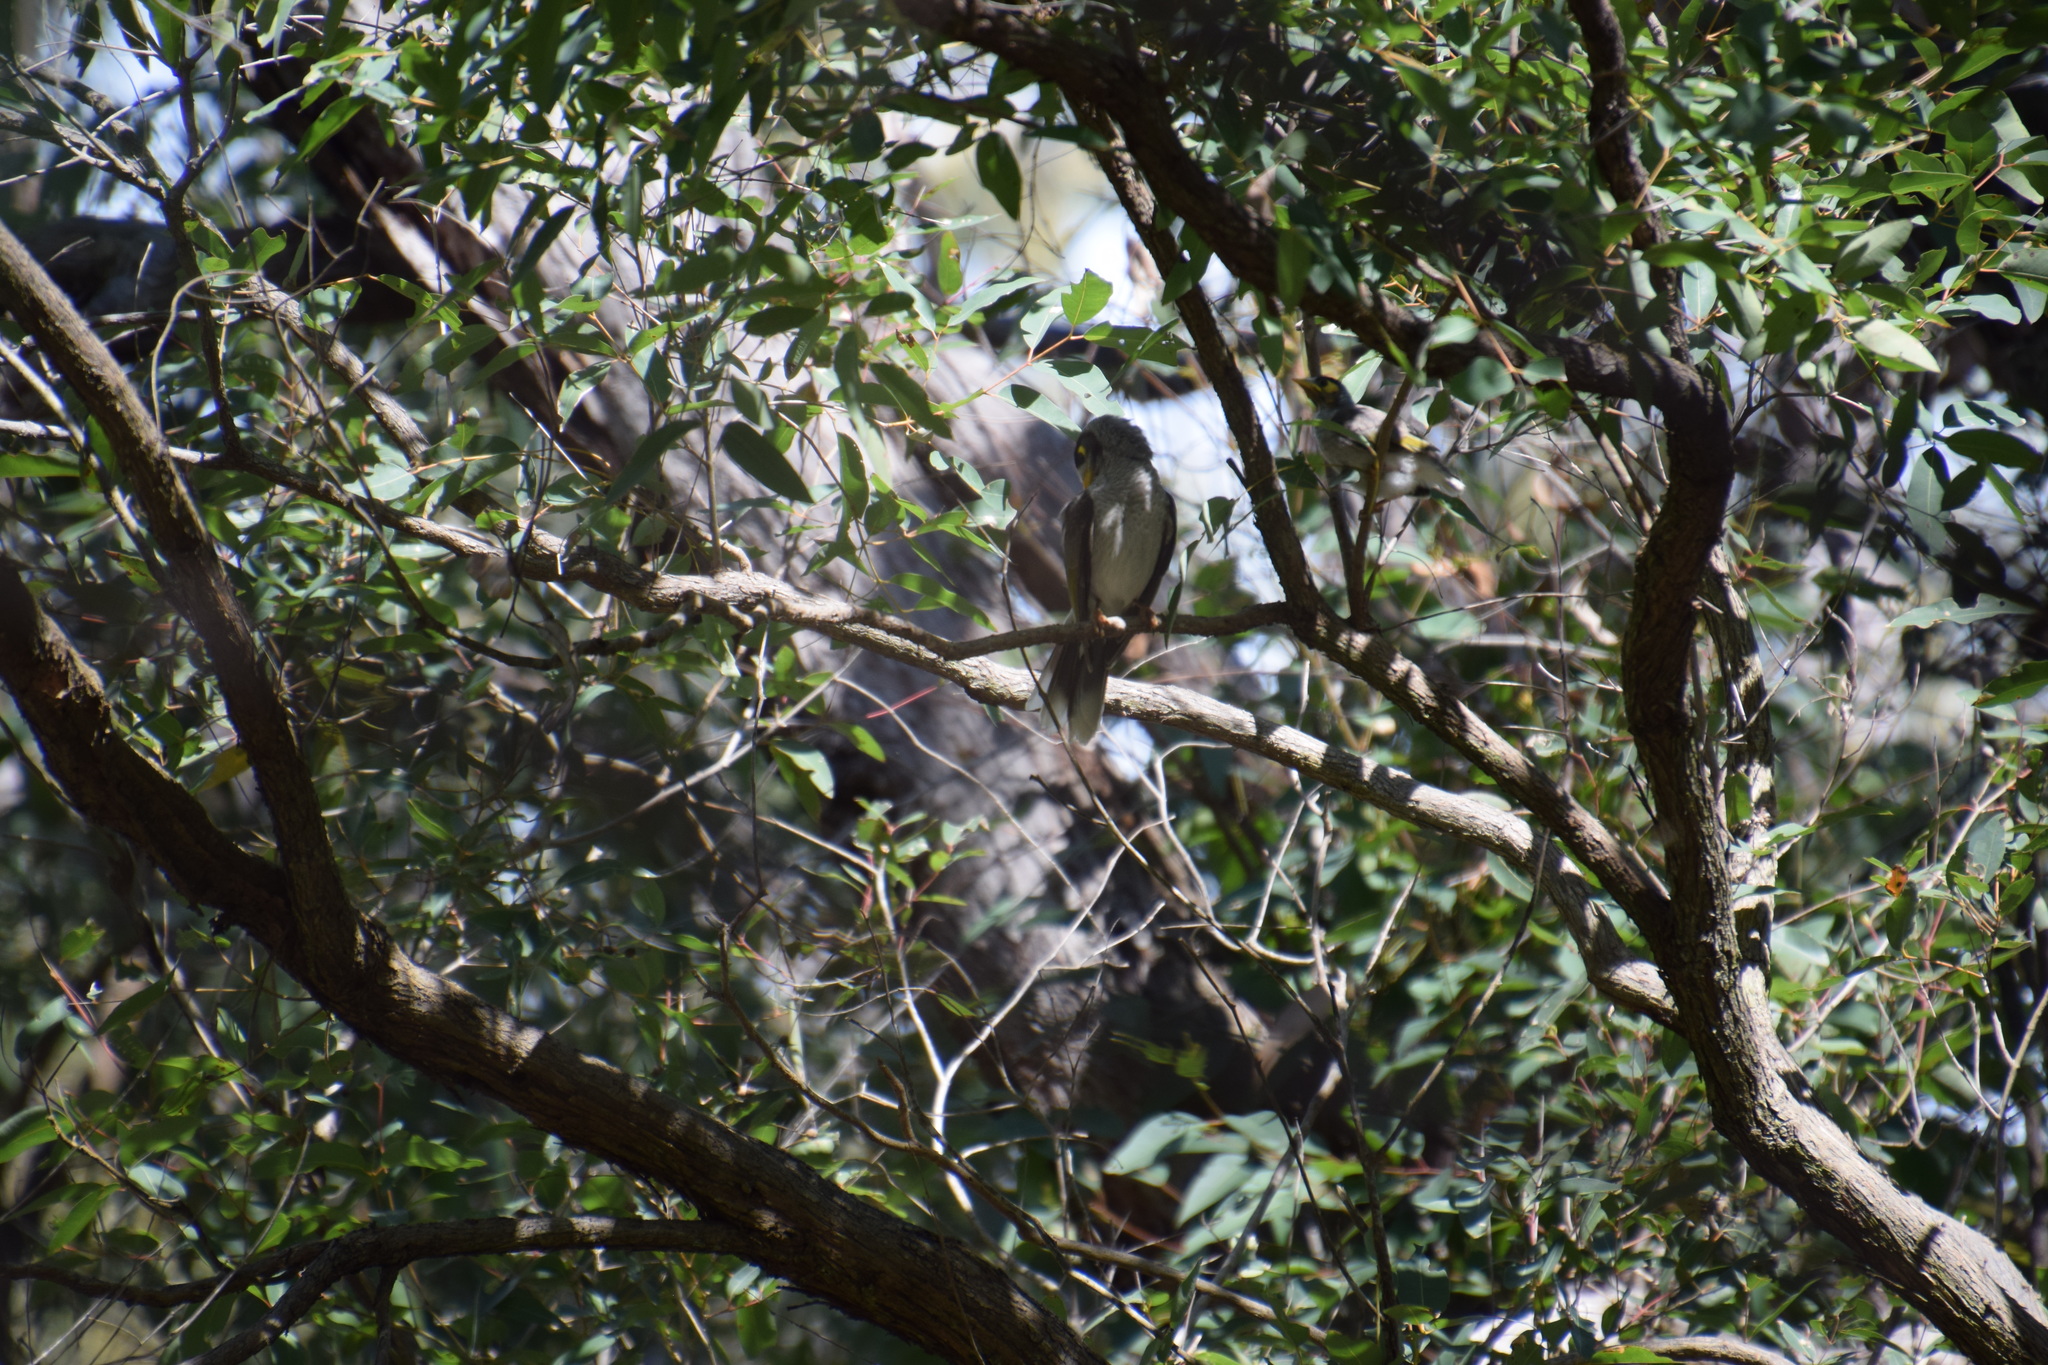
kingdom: Animalia
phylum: Chordata
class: Aves
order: Passeriformes
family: Meliphagidae
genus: Manorina
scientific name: Manorina melanocephala
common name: Noisy miner
